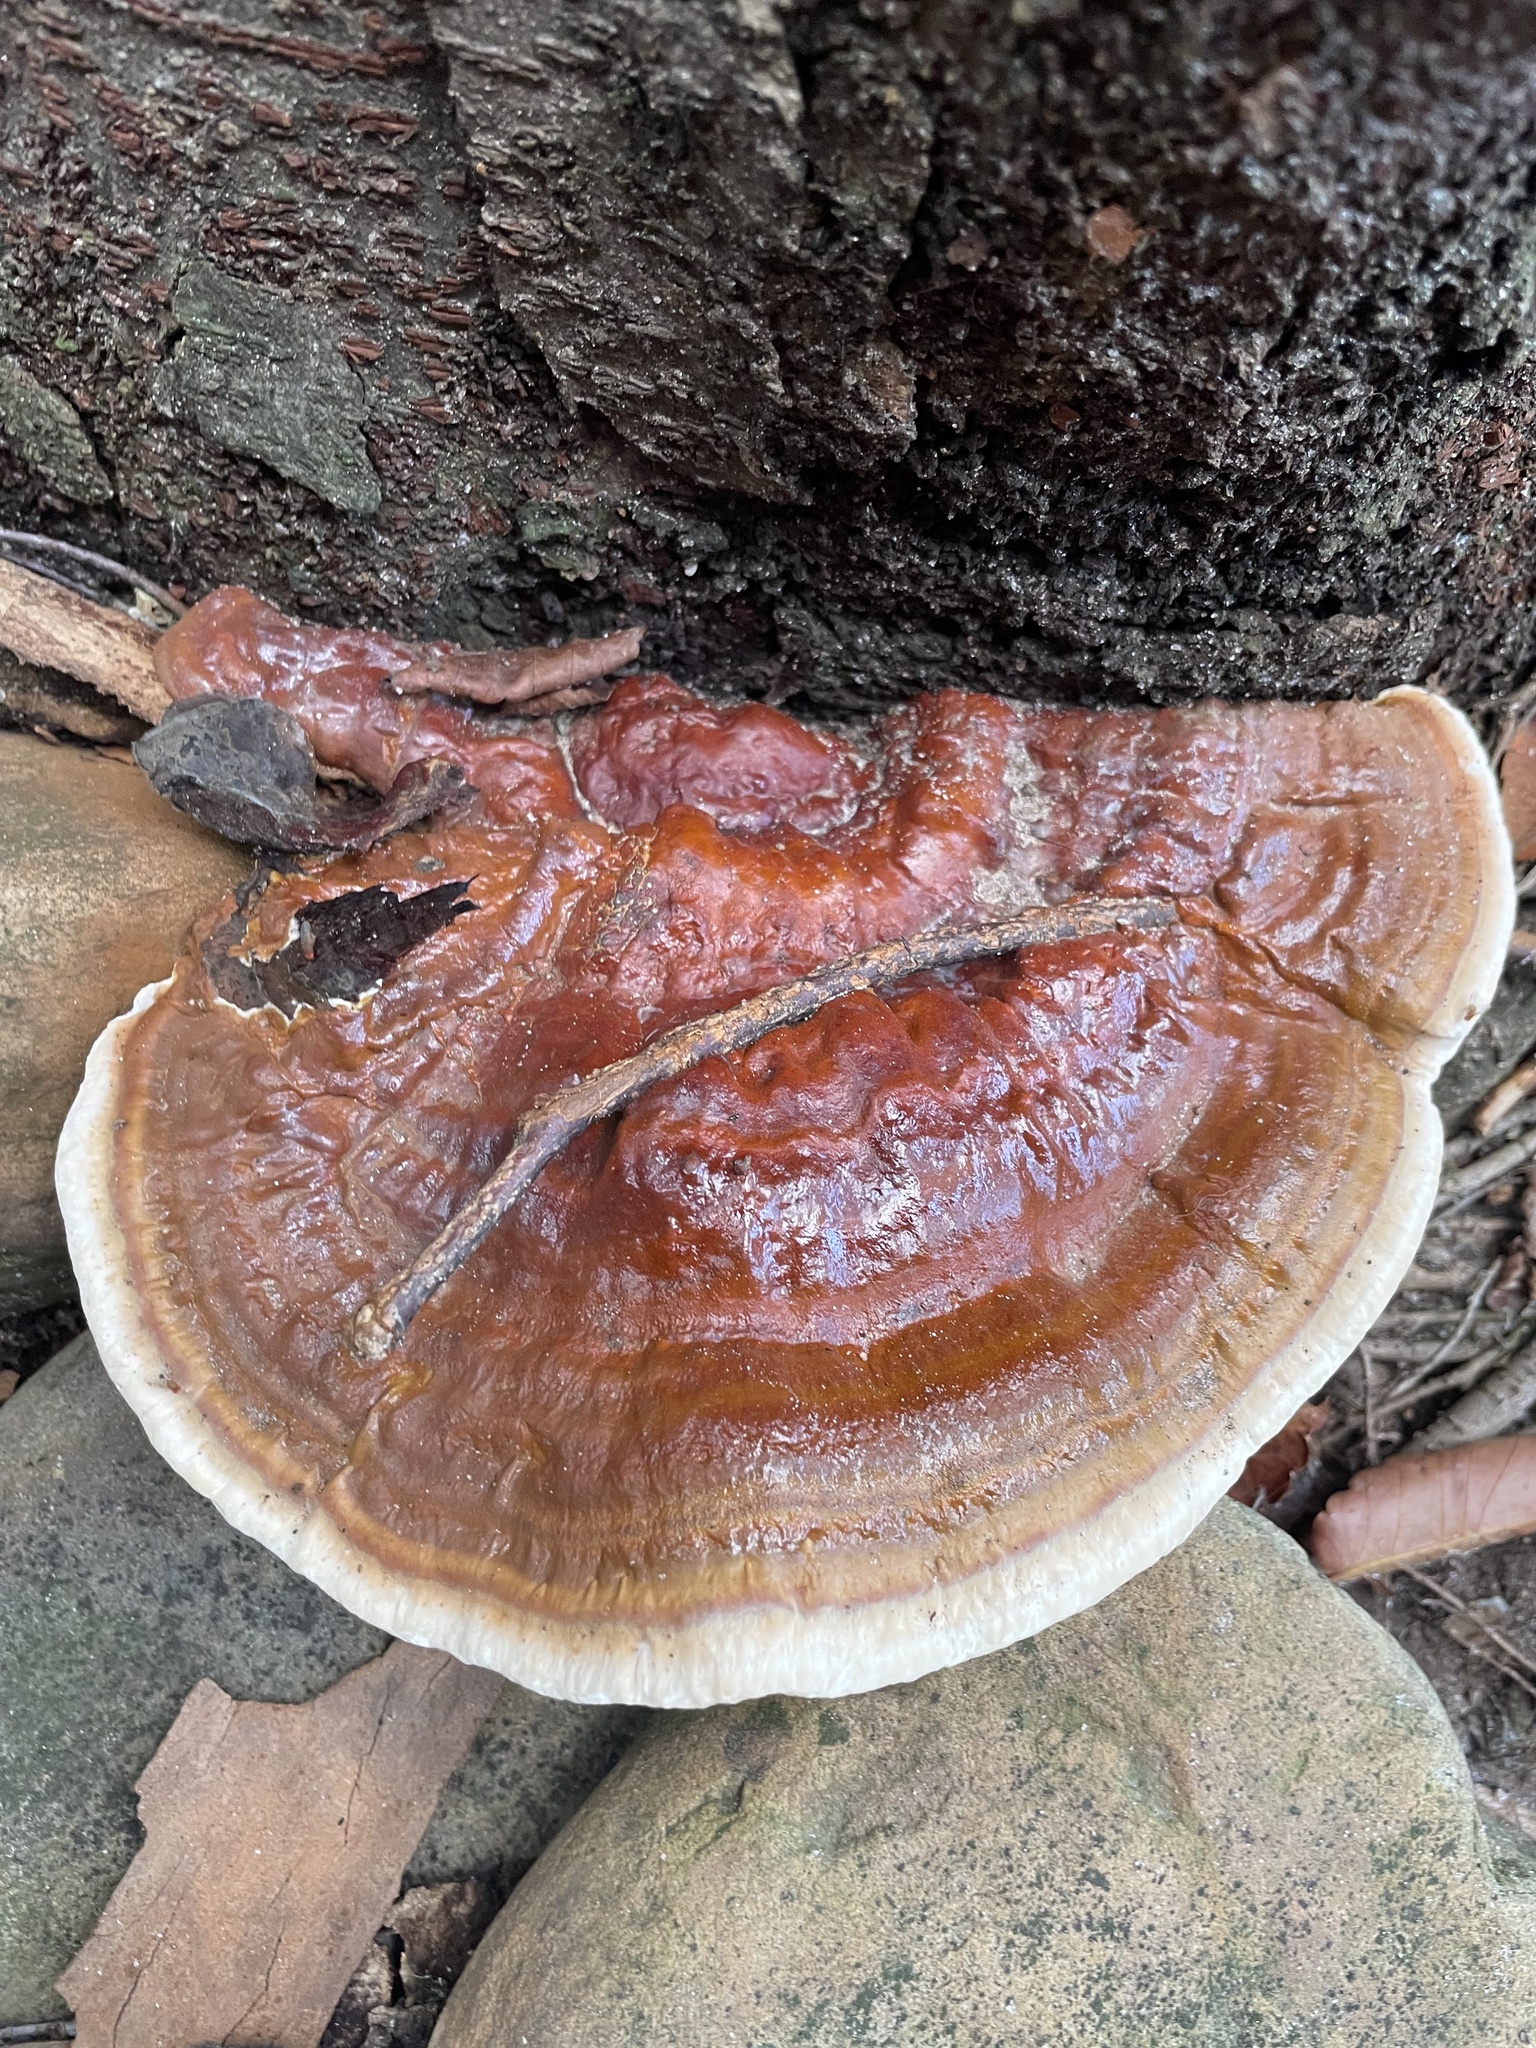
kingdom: Fungi
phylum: Basidiomycota
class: Agaricomycetes
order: Polyporales
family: Polyporaceae
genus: Ganoderma
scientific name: Ganoderma resinaceum
